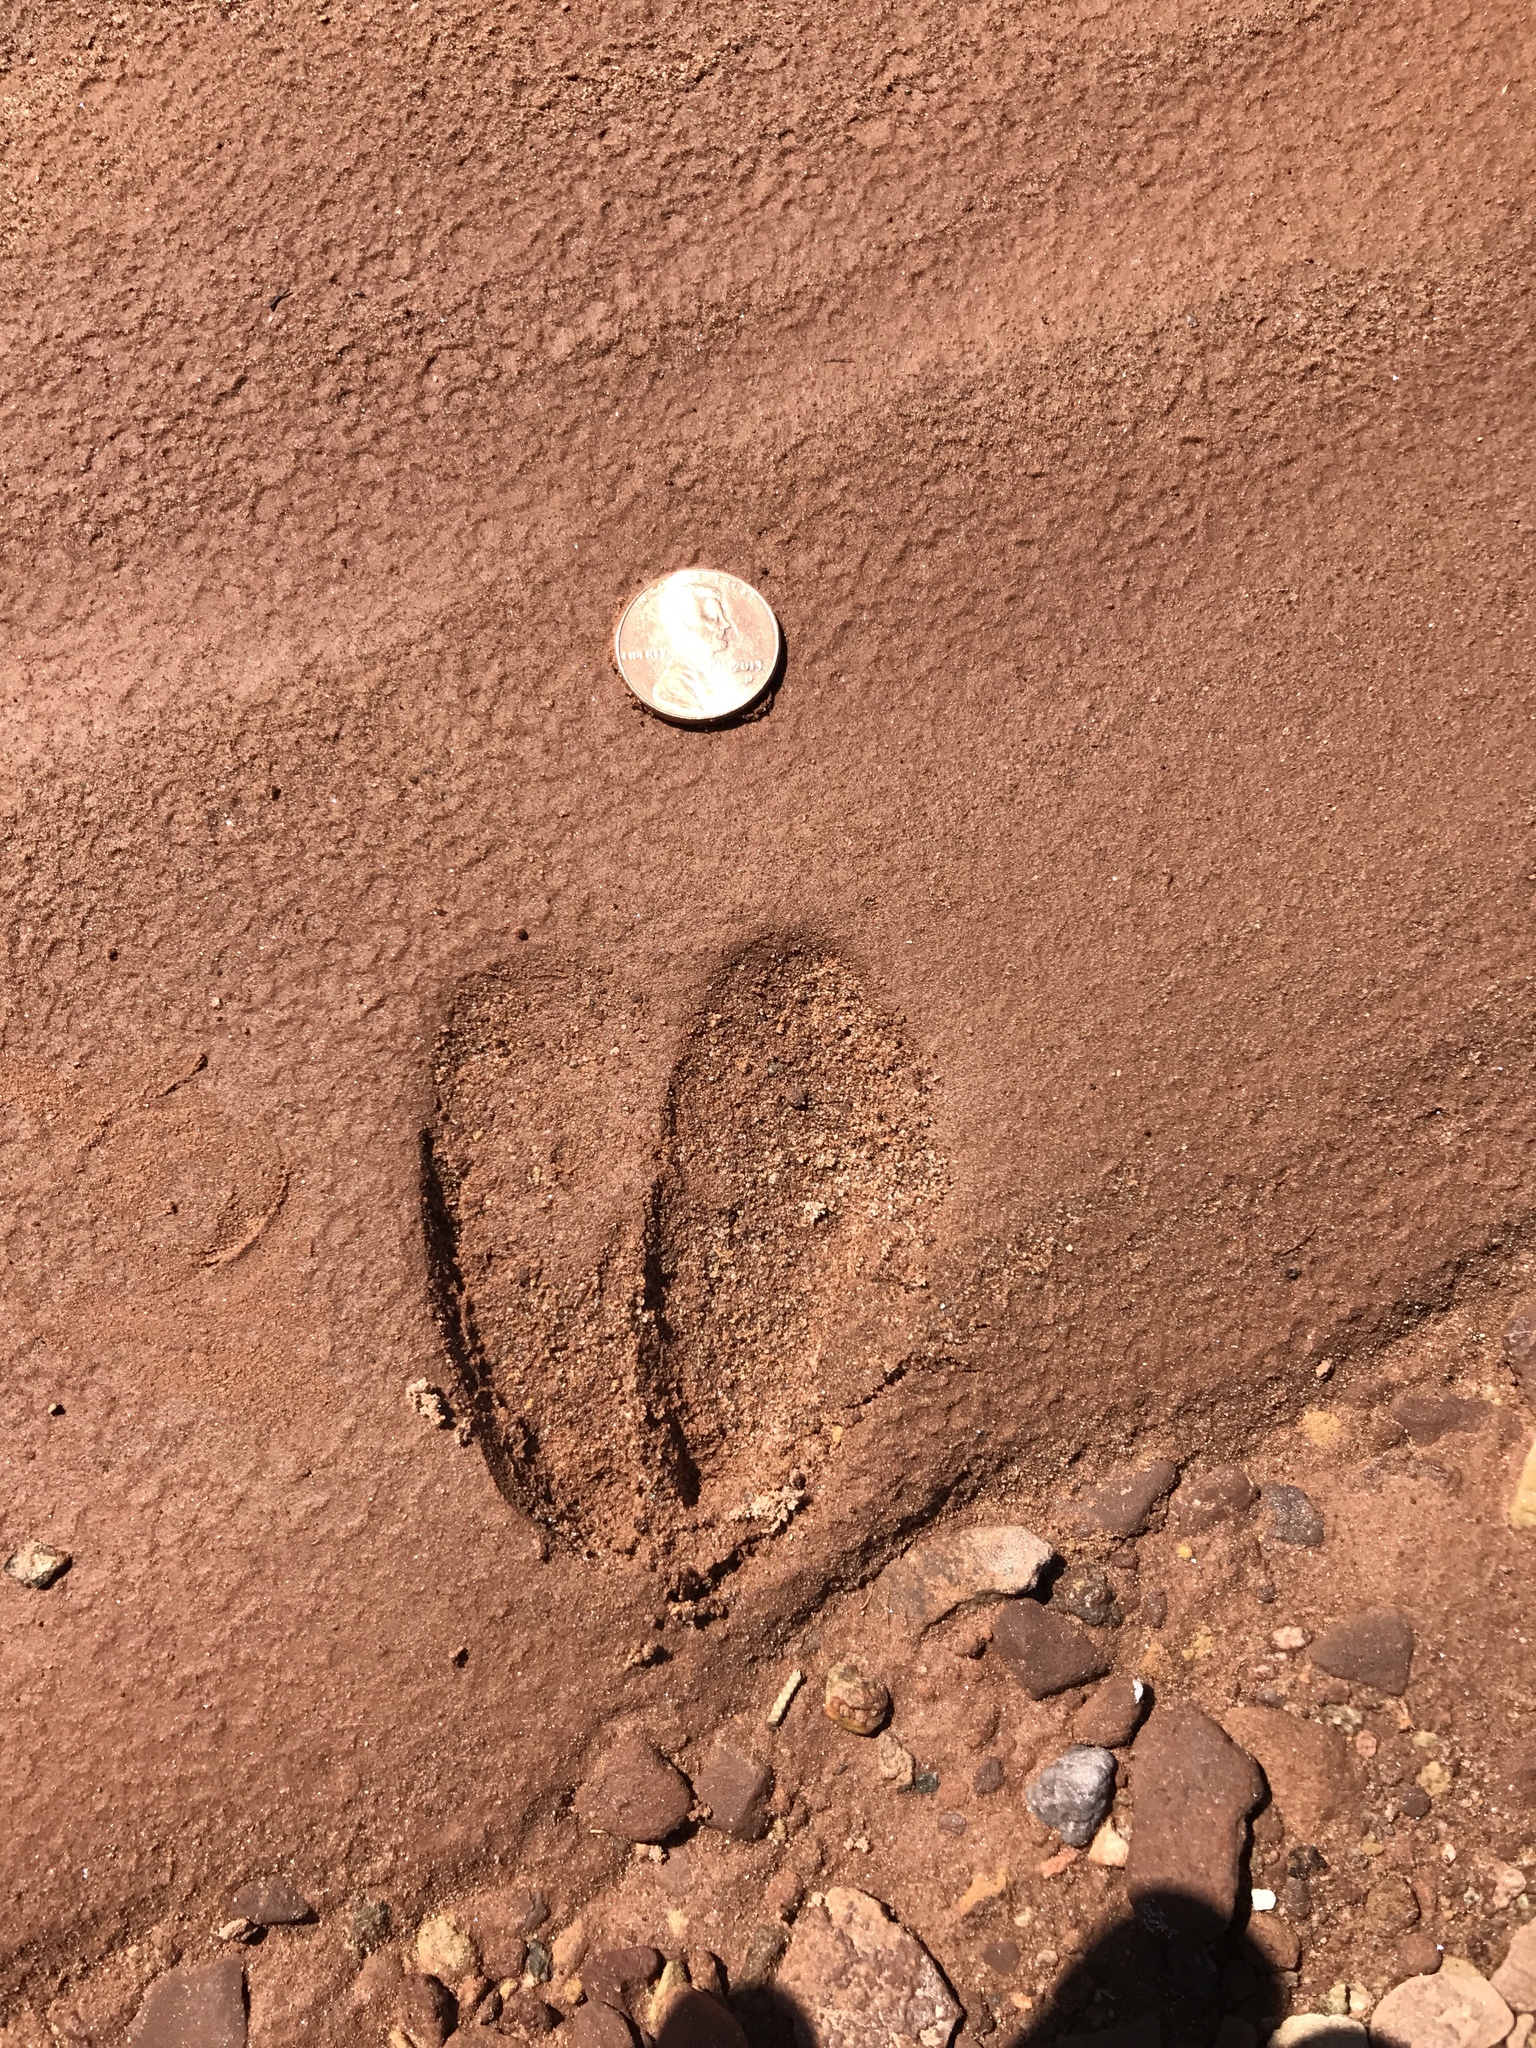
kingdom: Animalia
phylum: Chordata
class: Mammalia
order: Artiodactyla
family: Cervidae
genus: Odocoileus
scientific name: Odocoileus hemionus
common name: Mule deer
